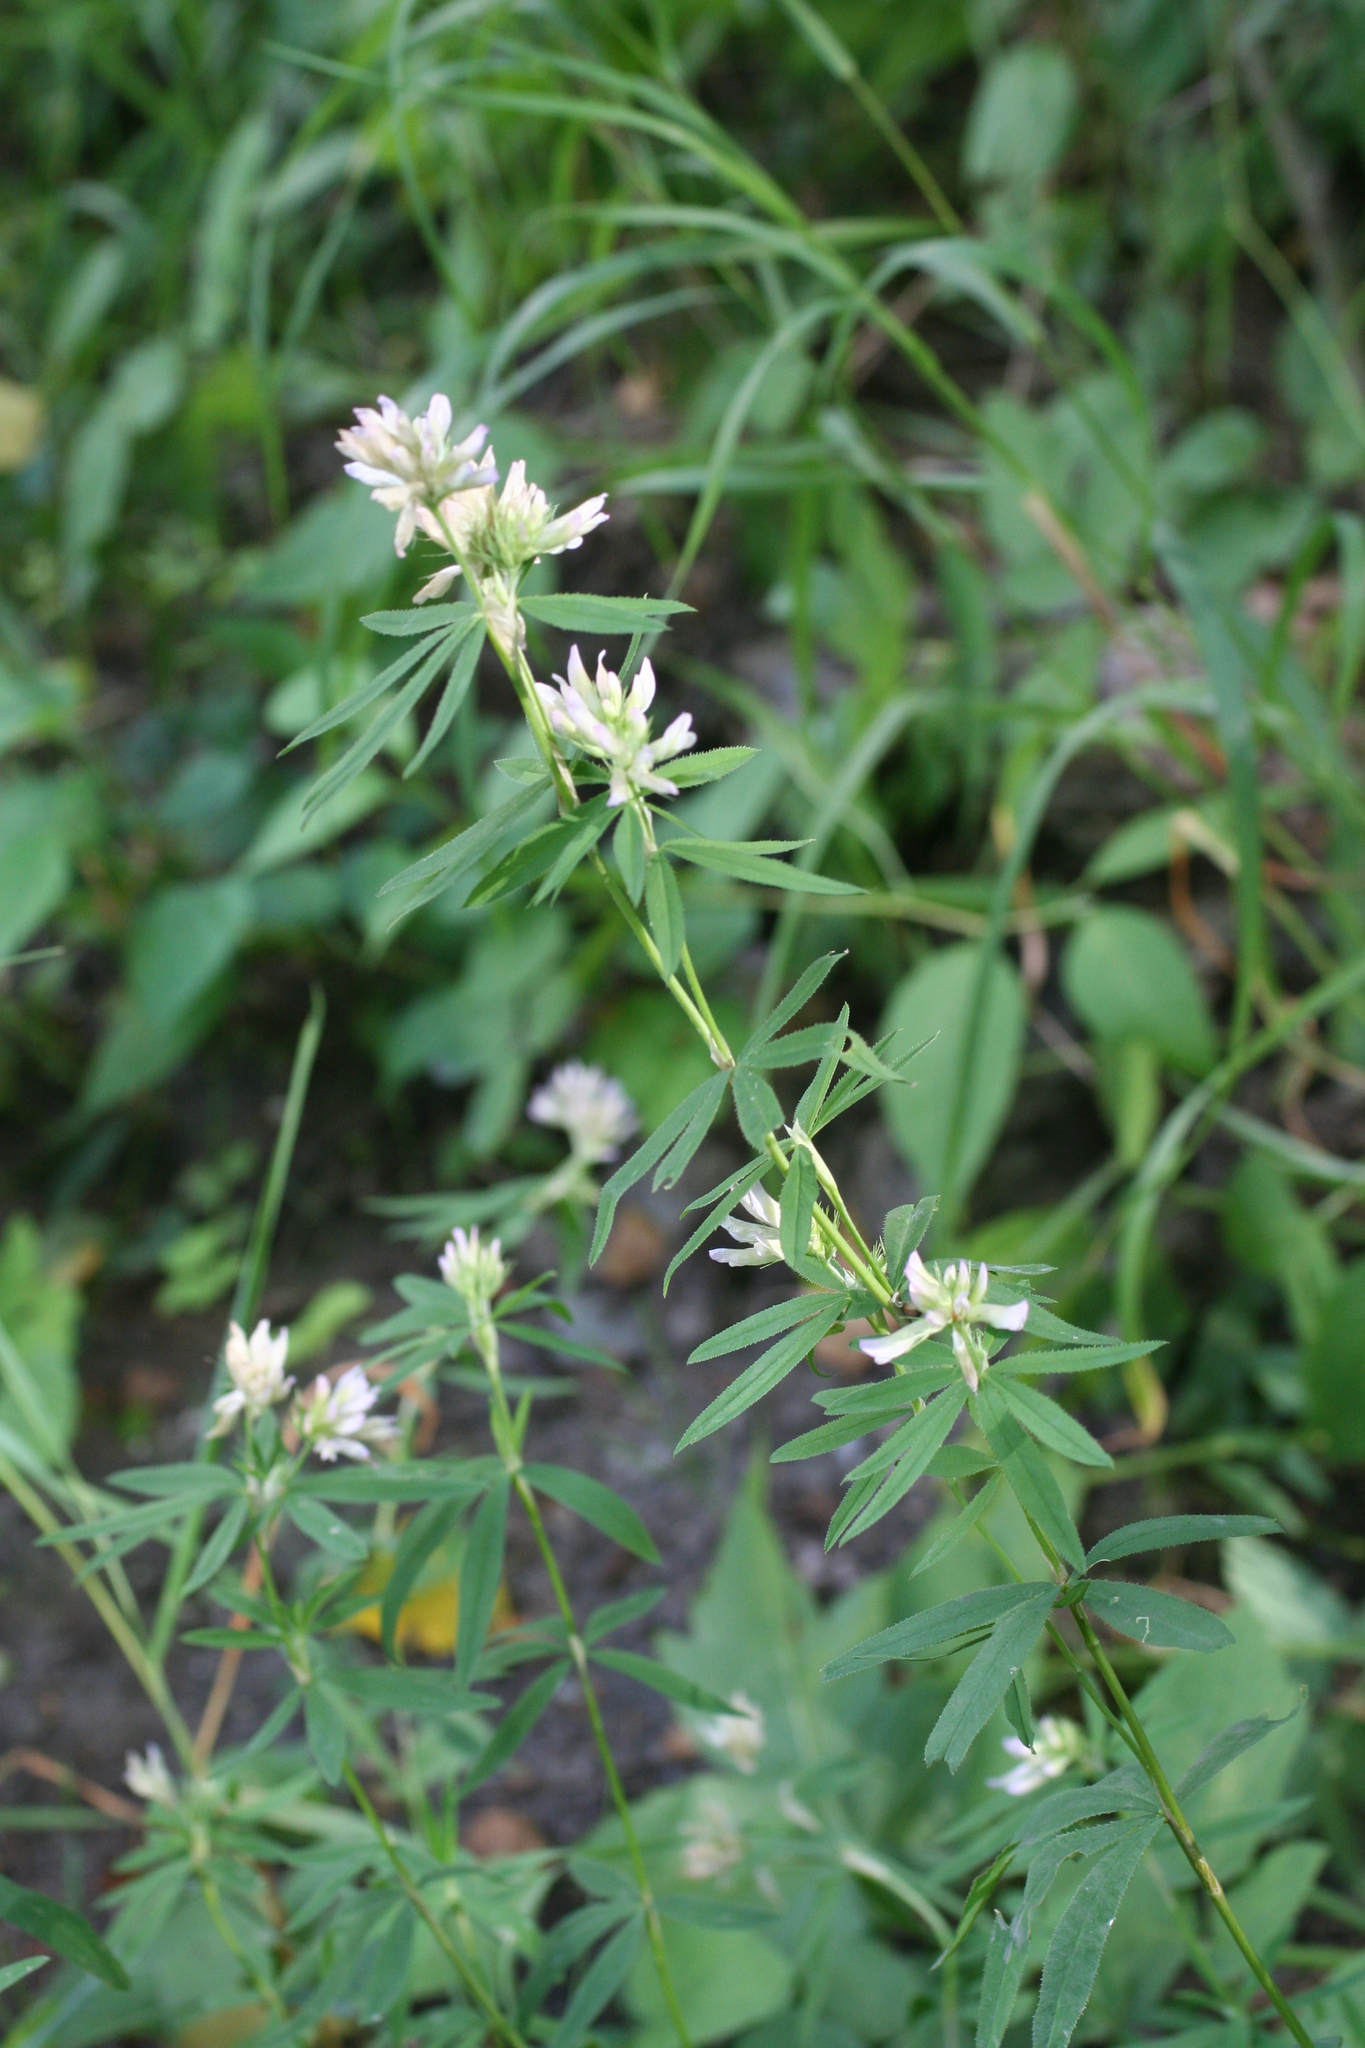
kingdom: Plantae
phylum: Tracheophyta
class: Magnoliopsida
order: Fabales
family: Fabaceae
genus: Trifolium
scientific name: Trifolium lupinaster
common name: Lupine clover
